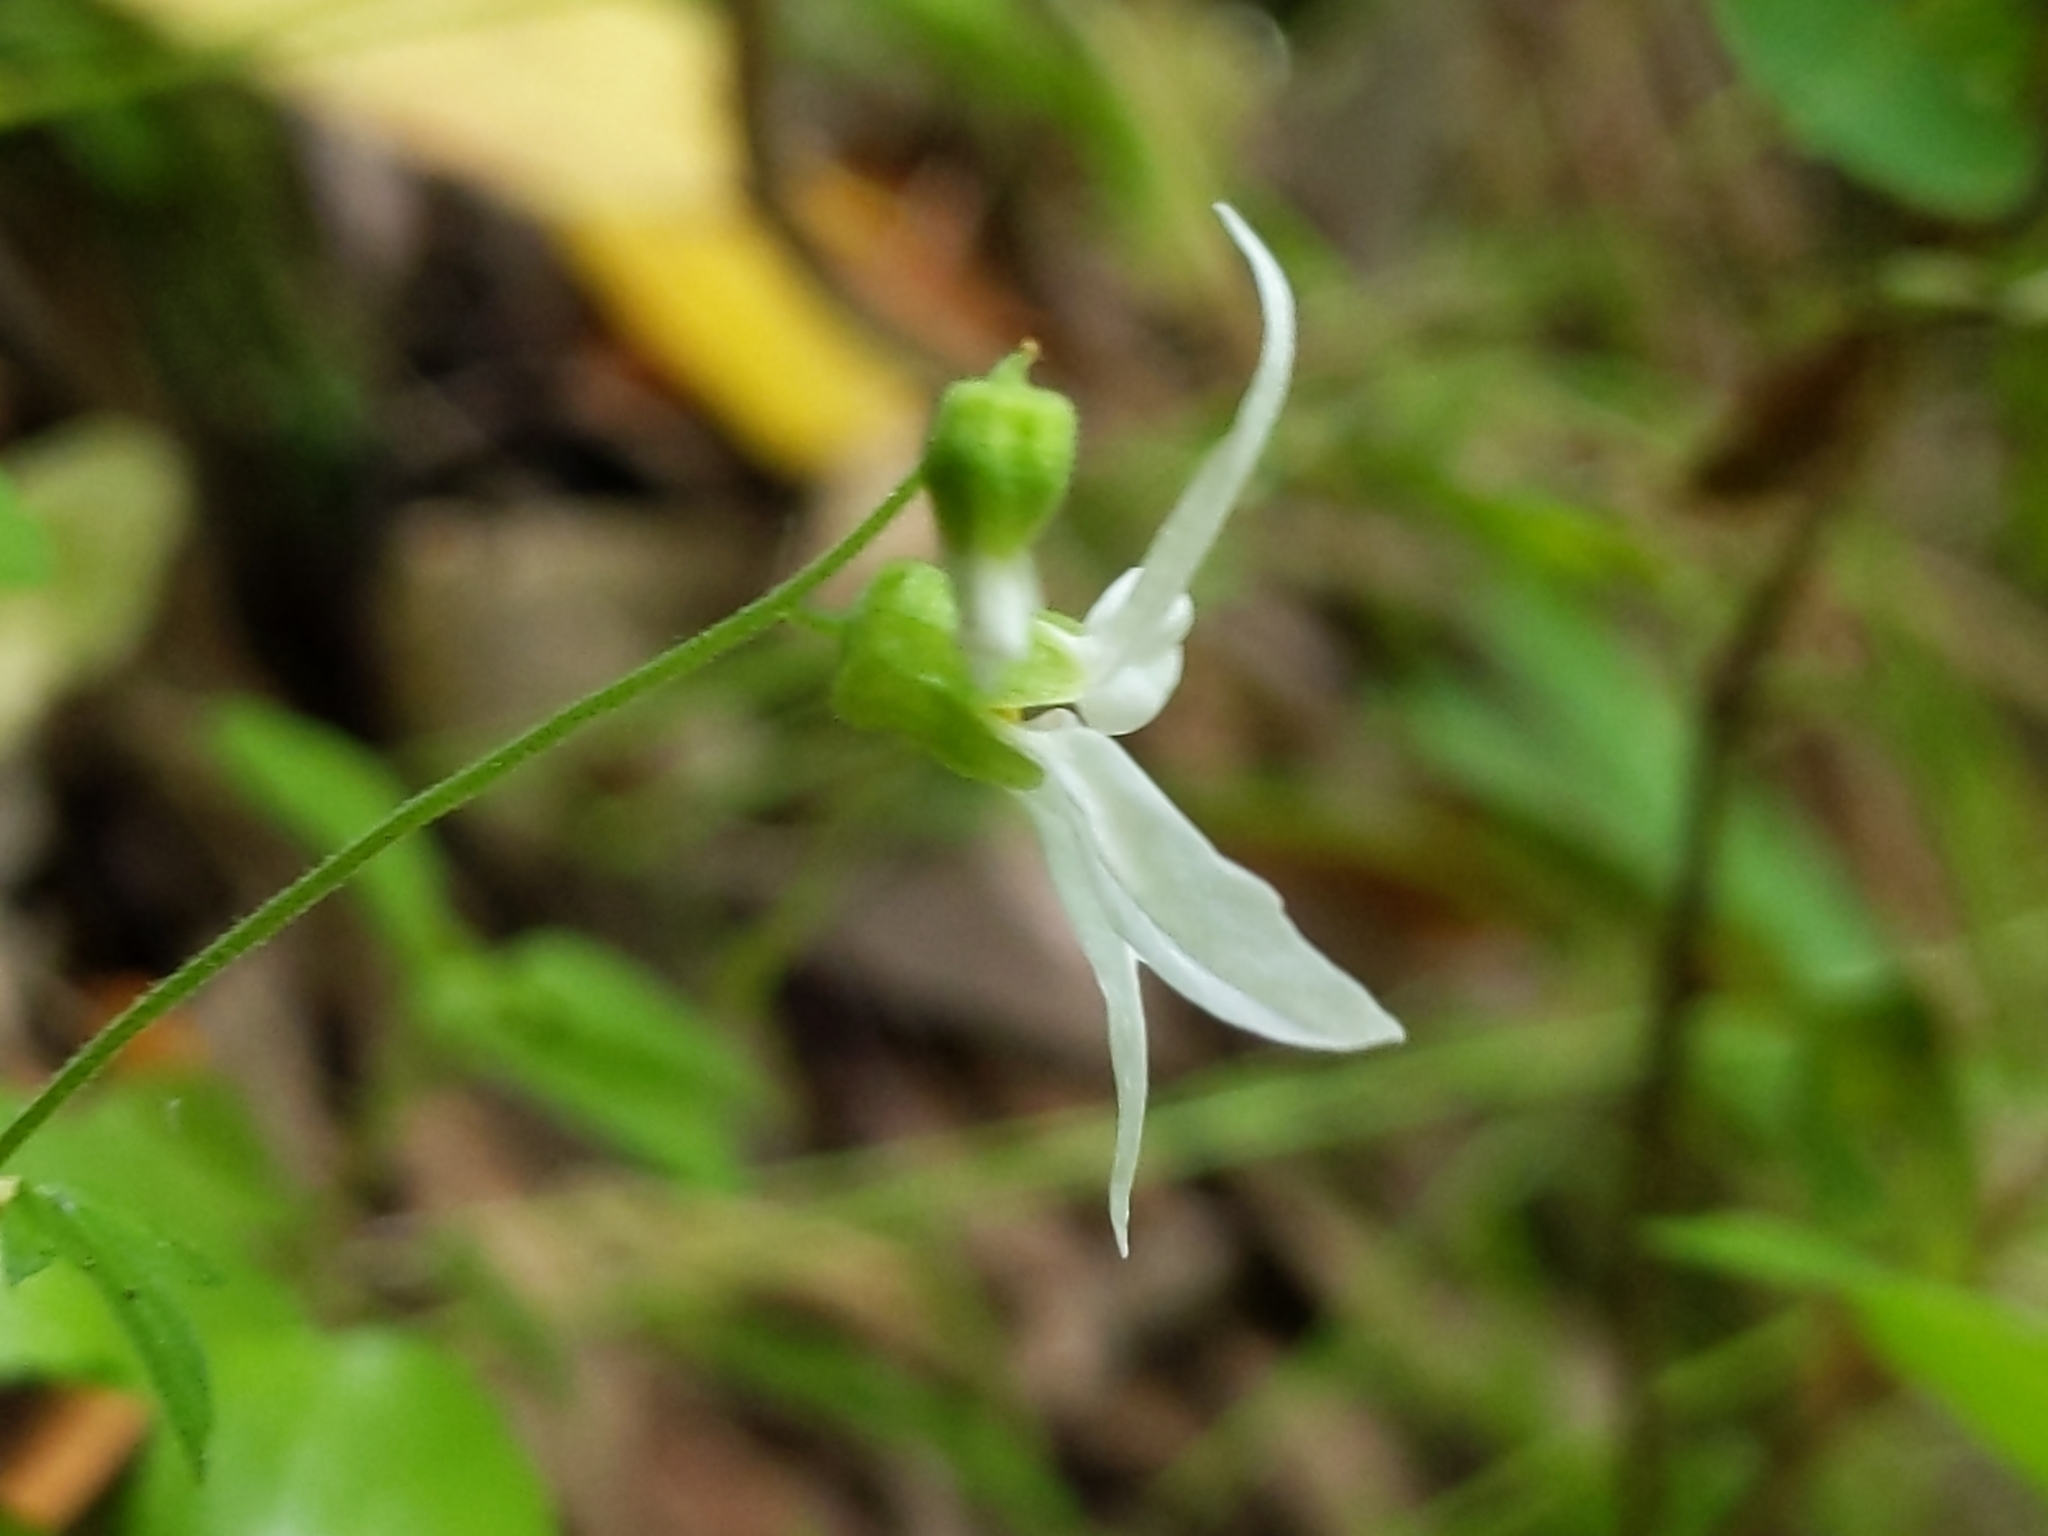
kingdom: Plantae
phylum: Tracheophyta
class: Magnoliopsida
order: Saxifragales
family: Saxifragaceae
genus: Lithophragma
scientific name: Lithophragma heterophyllum
